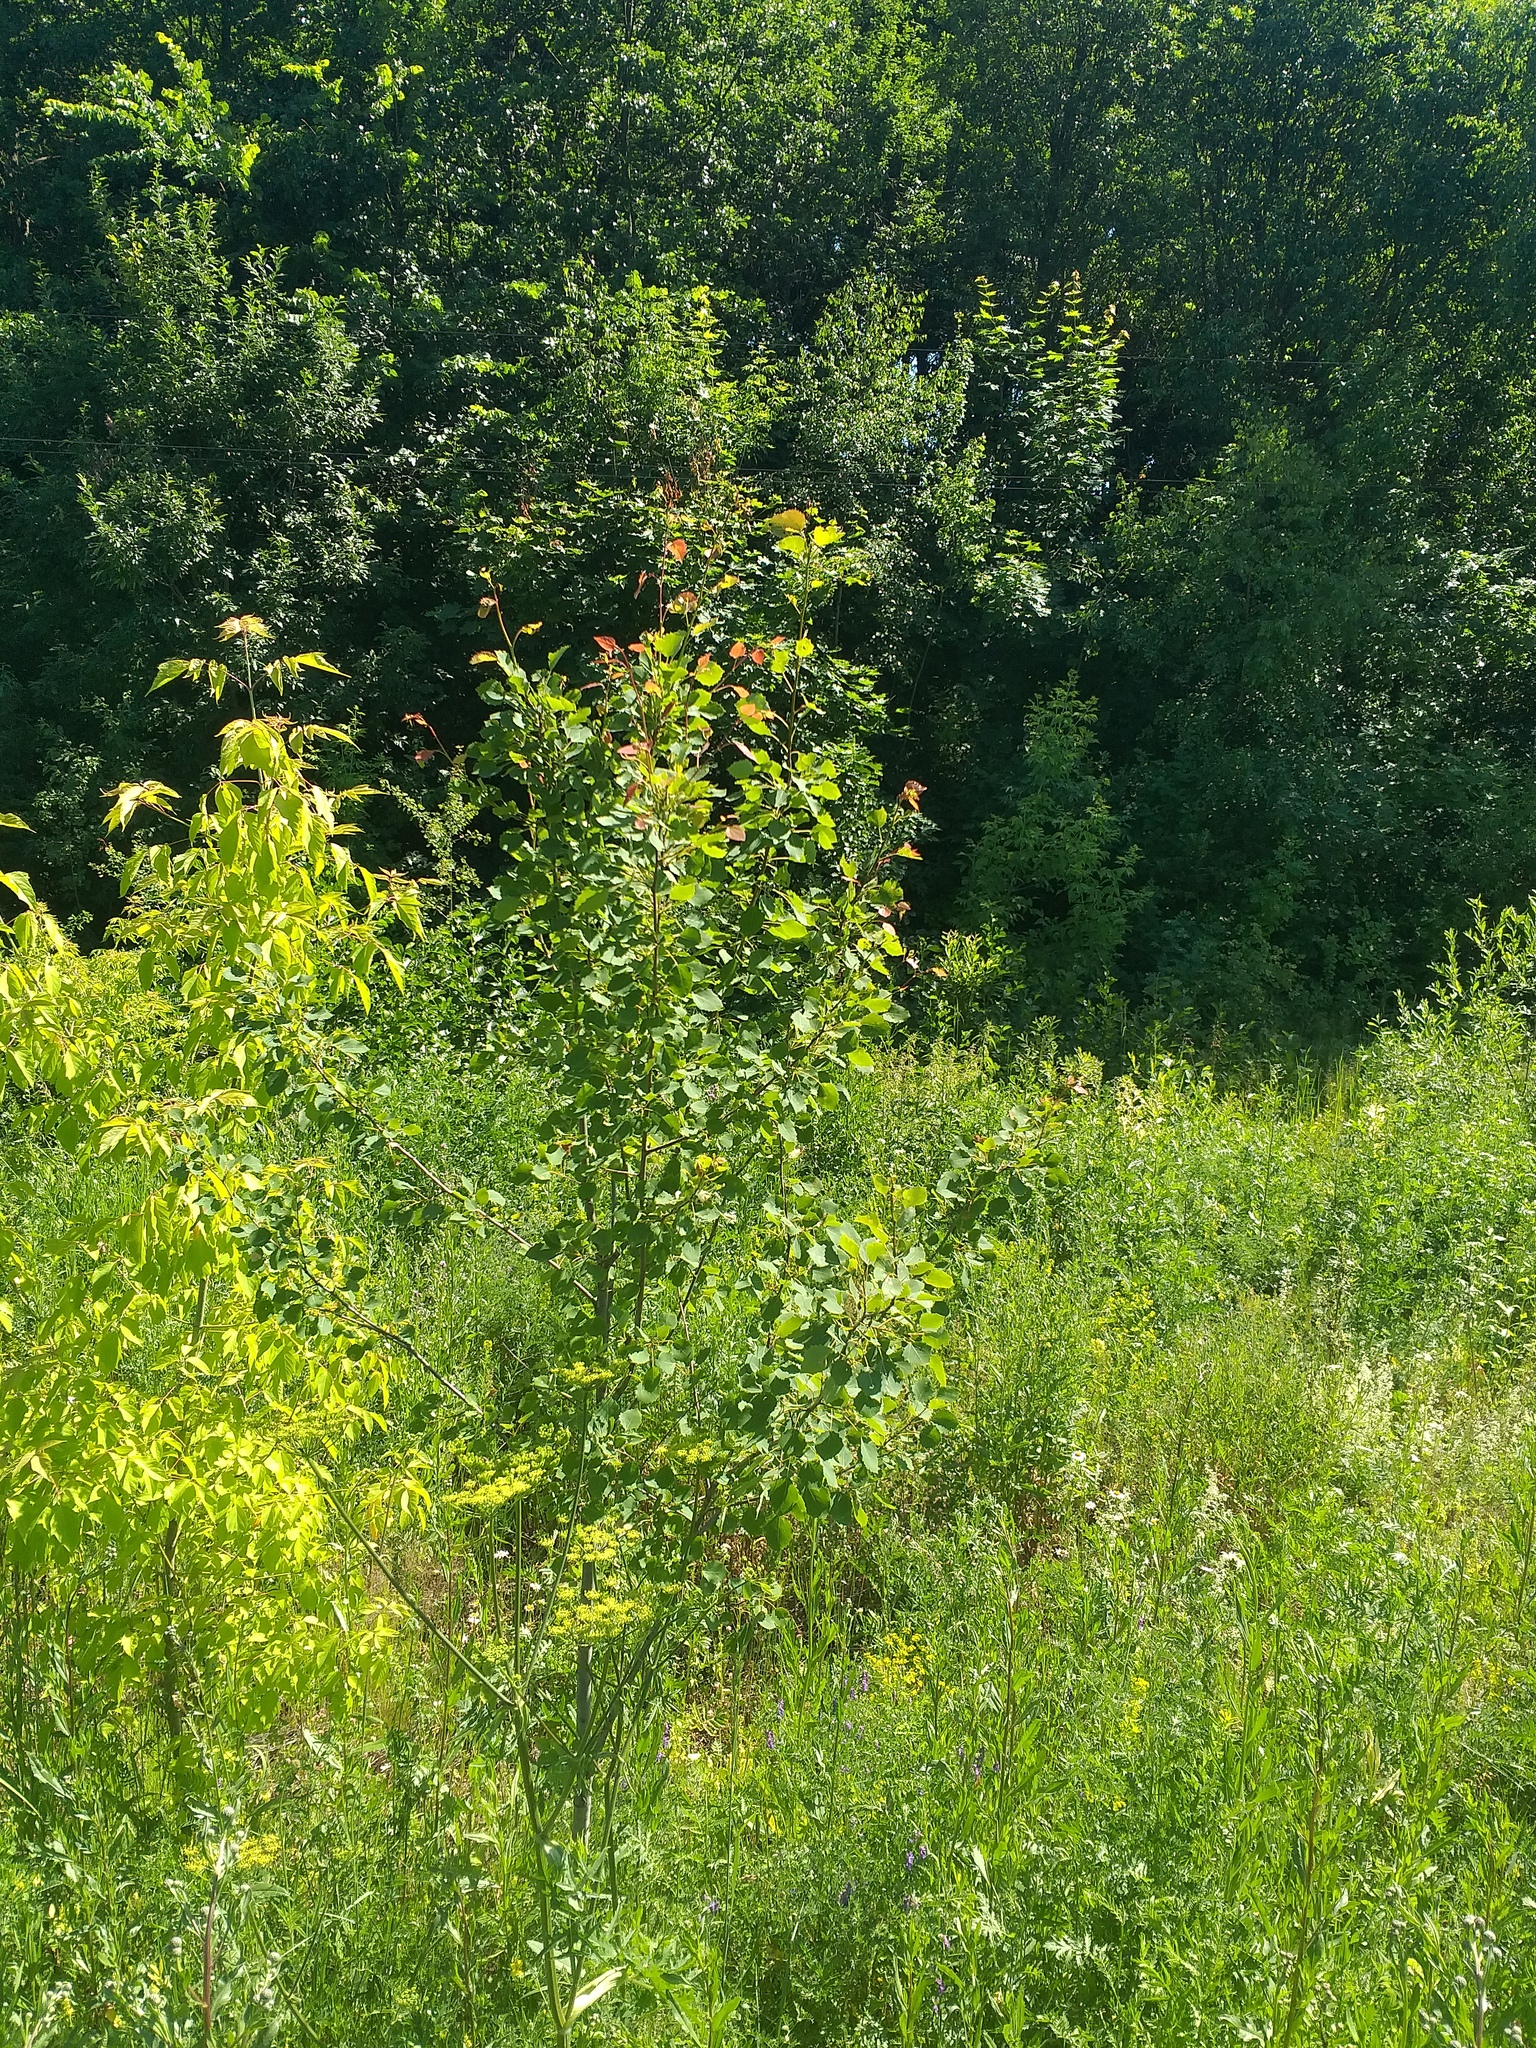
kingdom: Plantae
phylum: Tracheophyta
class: Magnoliopsida
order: Malpighiales
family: Salicaceae
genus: Populus
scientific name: Populus tremula
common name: European aspen
